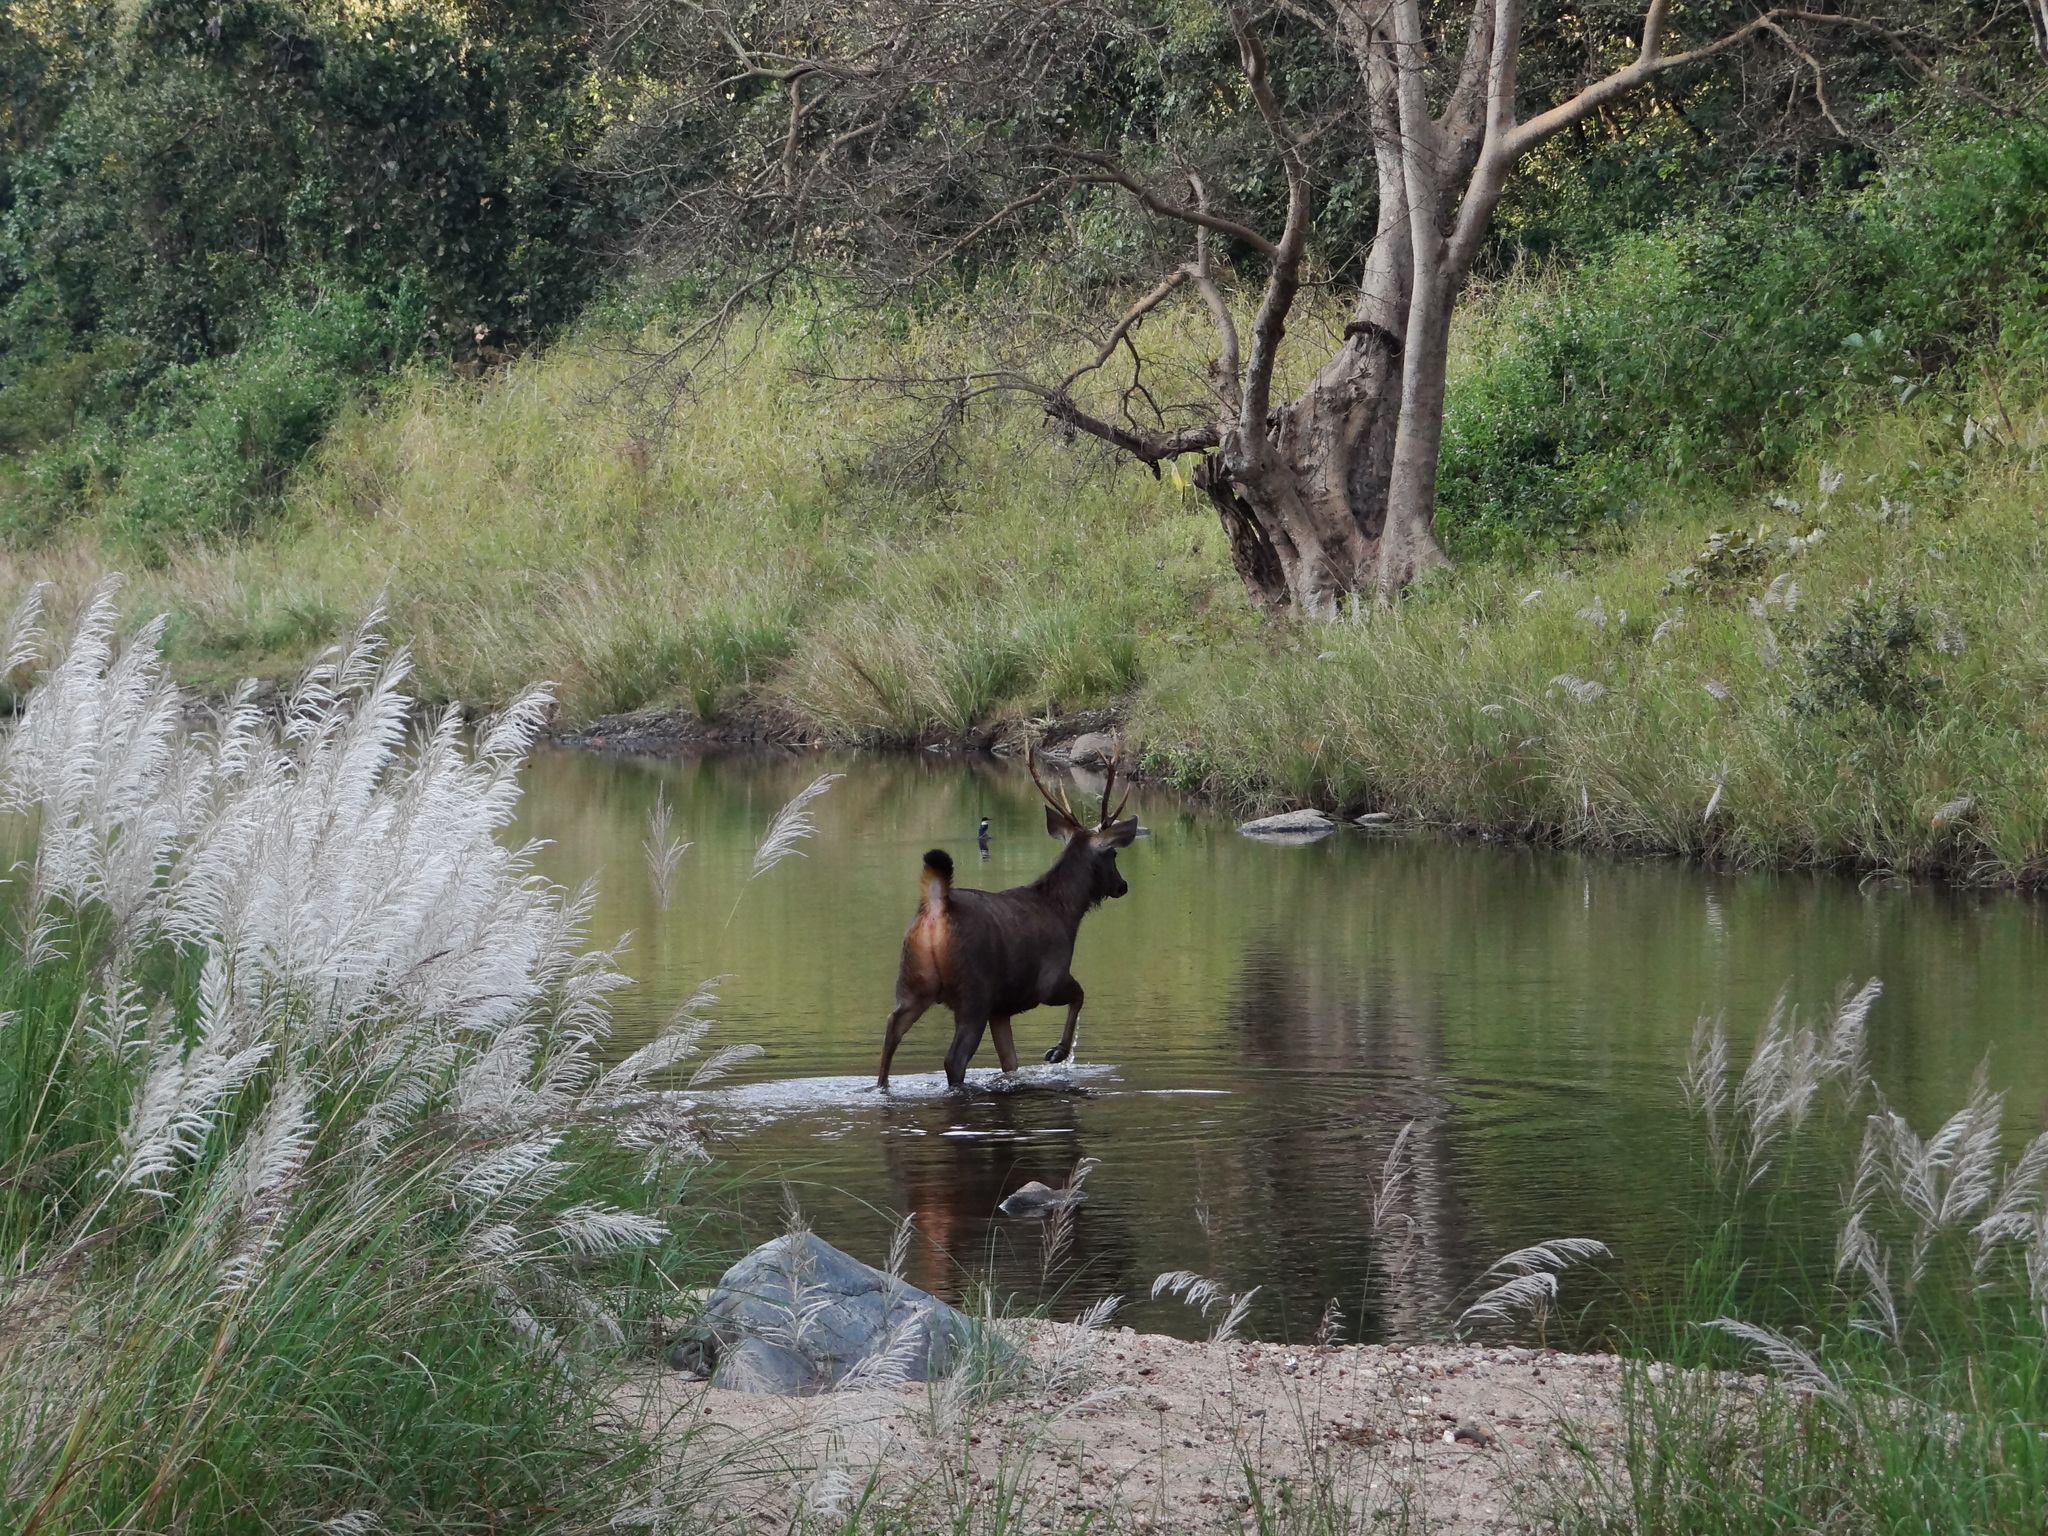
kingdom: Animalia
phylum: Chordata
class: Mammalia
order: Artiodactyla
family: Cervidae
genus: Rusa
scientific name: Rusa unicolor
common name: Sambar
